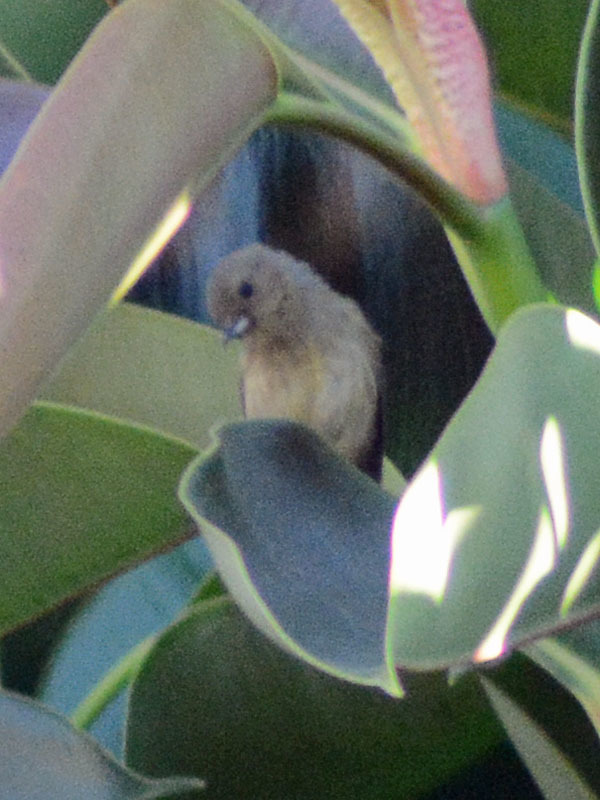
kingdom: Animalia
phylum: Chordata
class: Aves
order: Passeriformes
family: Thraupidae
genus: Diglossa
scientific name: Diglossa baritula
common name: Cinnamon-bellied flowerpiercer
